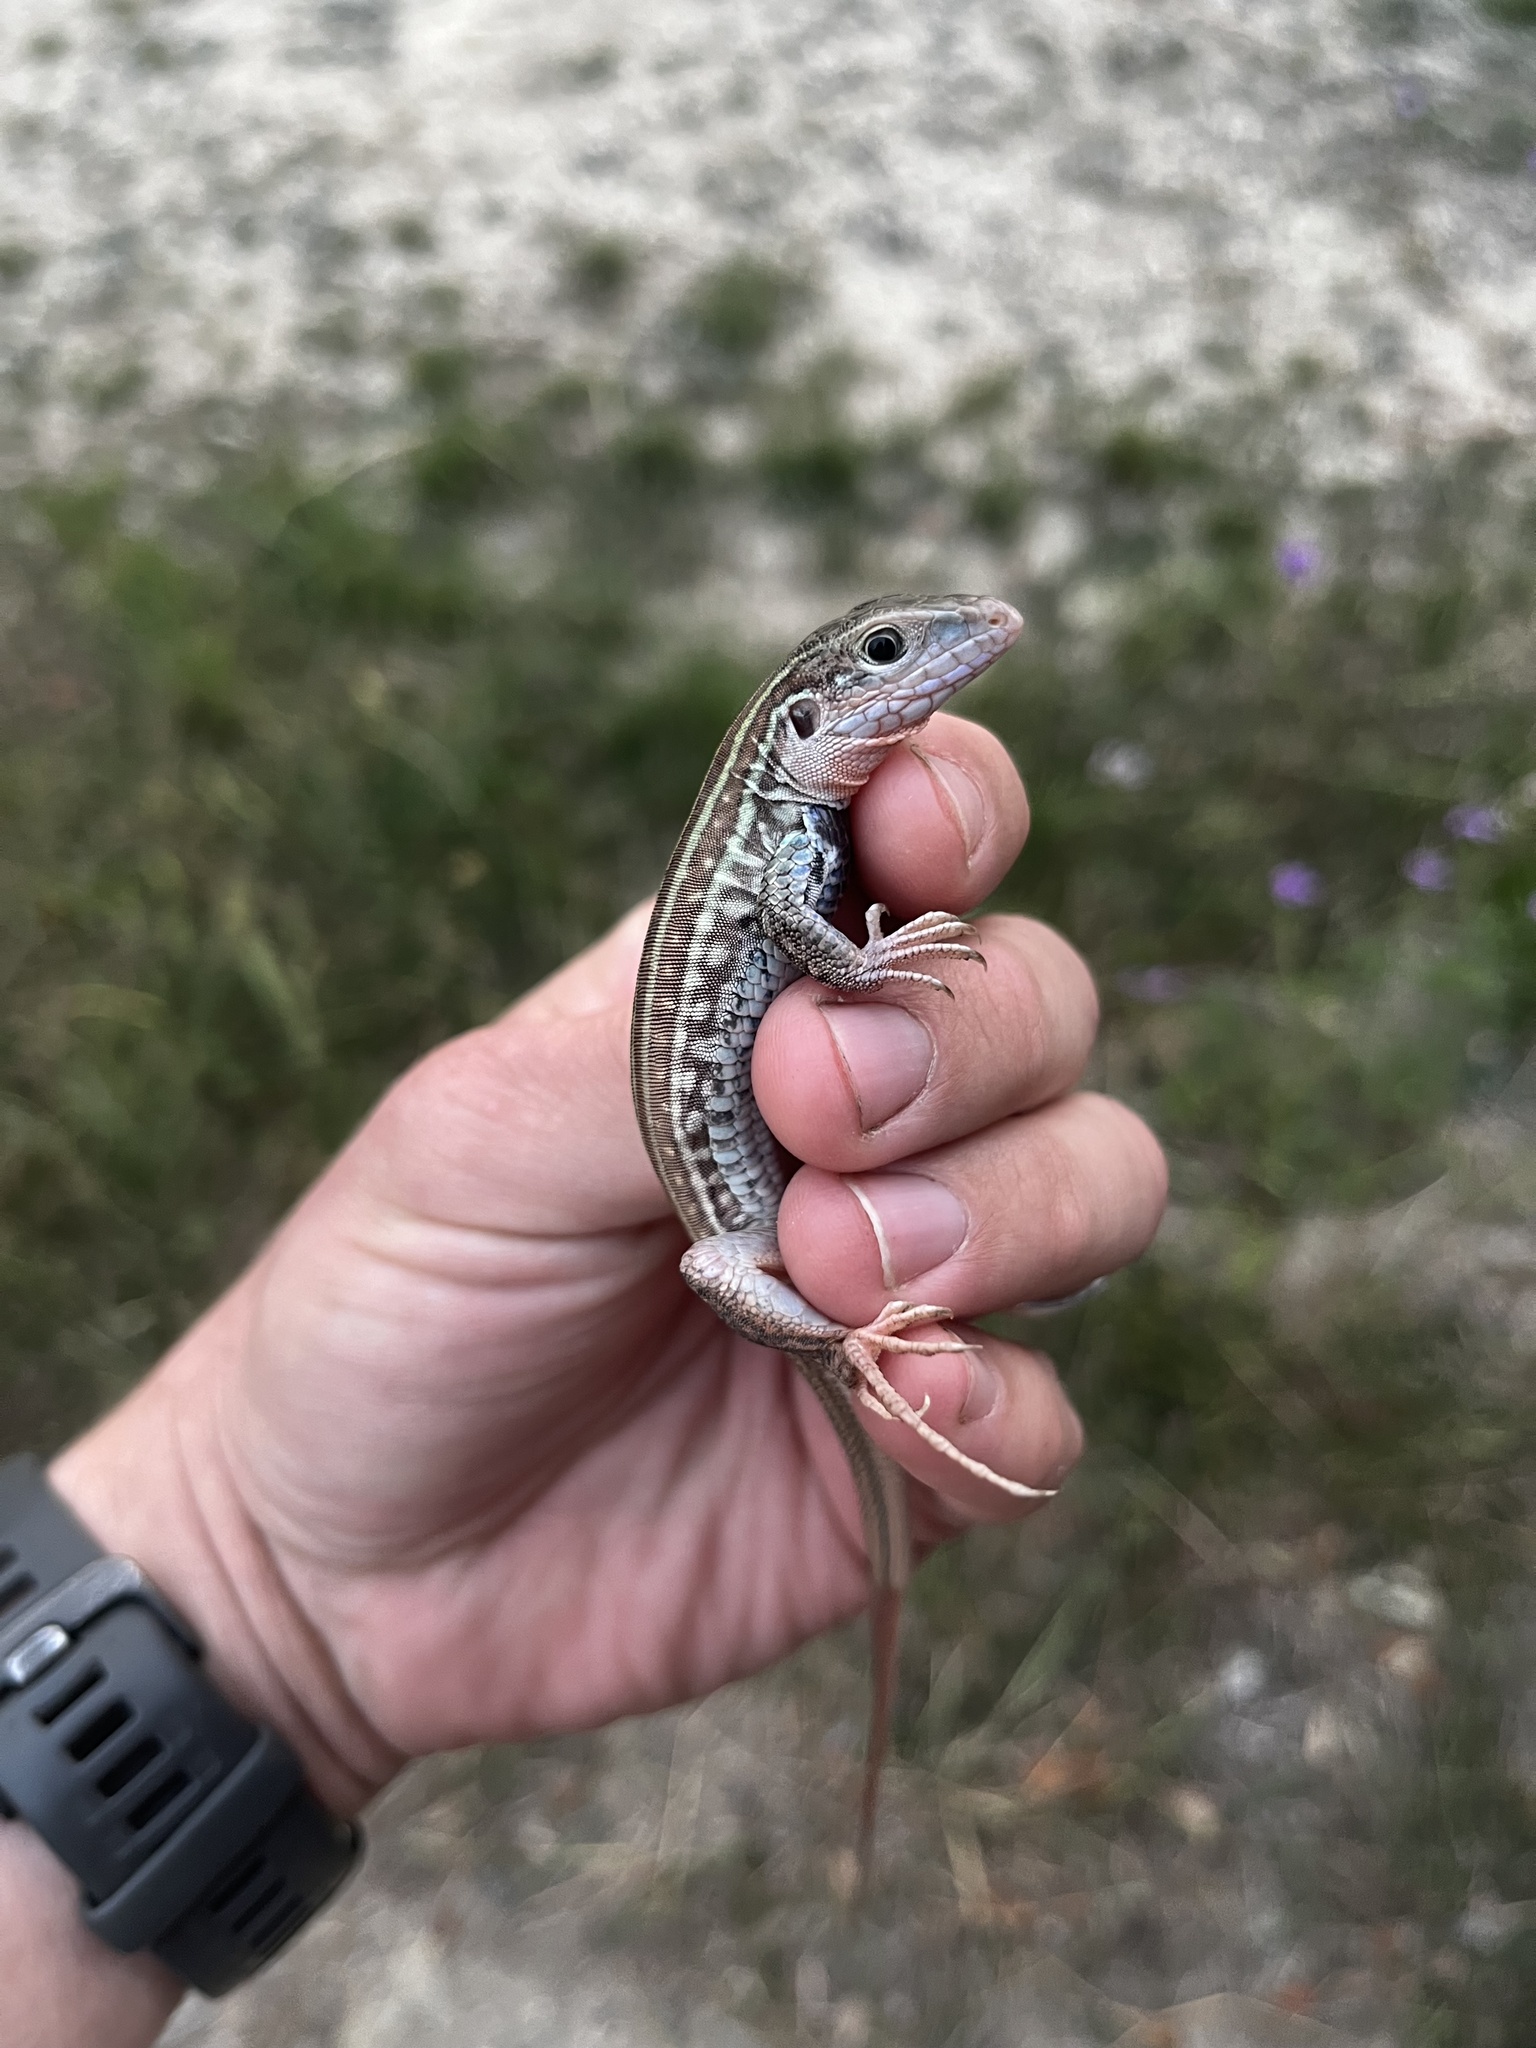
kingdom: Animalia
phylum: Chordata
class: Squamata
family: Teiidae
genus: Aspidoscelis
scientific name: Aspidoscelis gularis
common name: Eastern spotted whiptail
